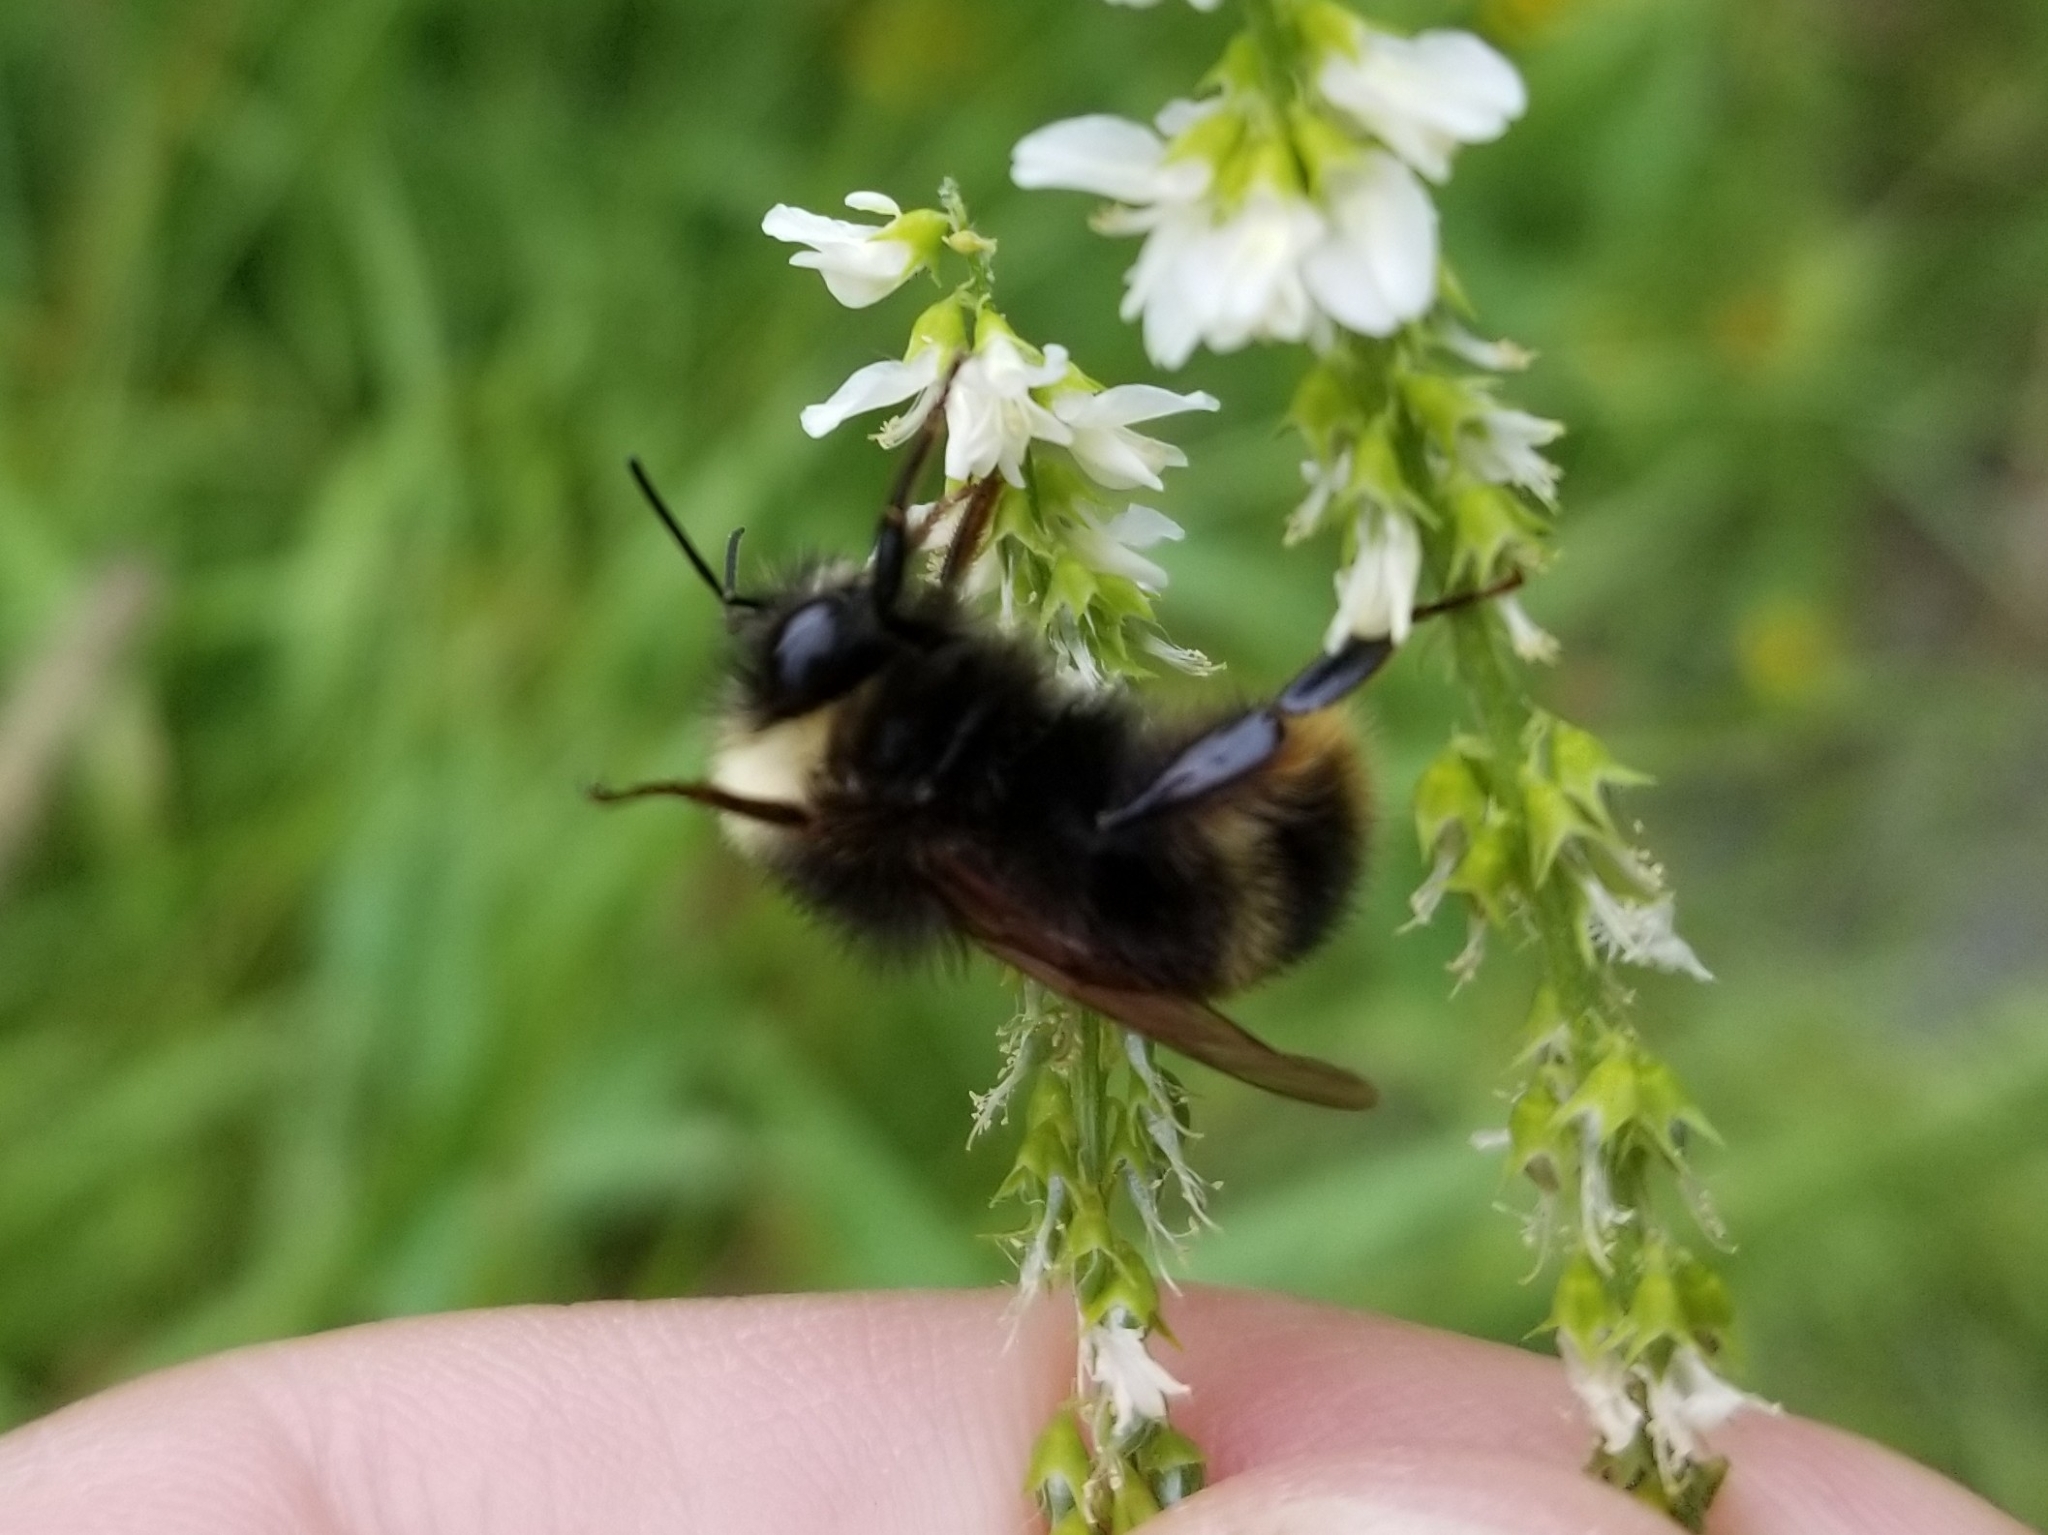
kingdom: Animalia
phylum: Arthropoda
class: Insecta
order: Hymenoptera
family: Apidae
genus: Bombus
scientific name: Bombus mckayi
